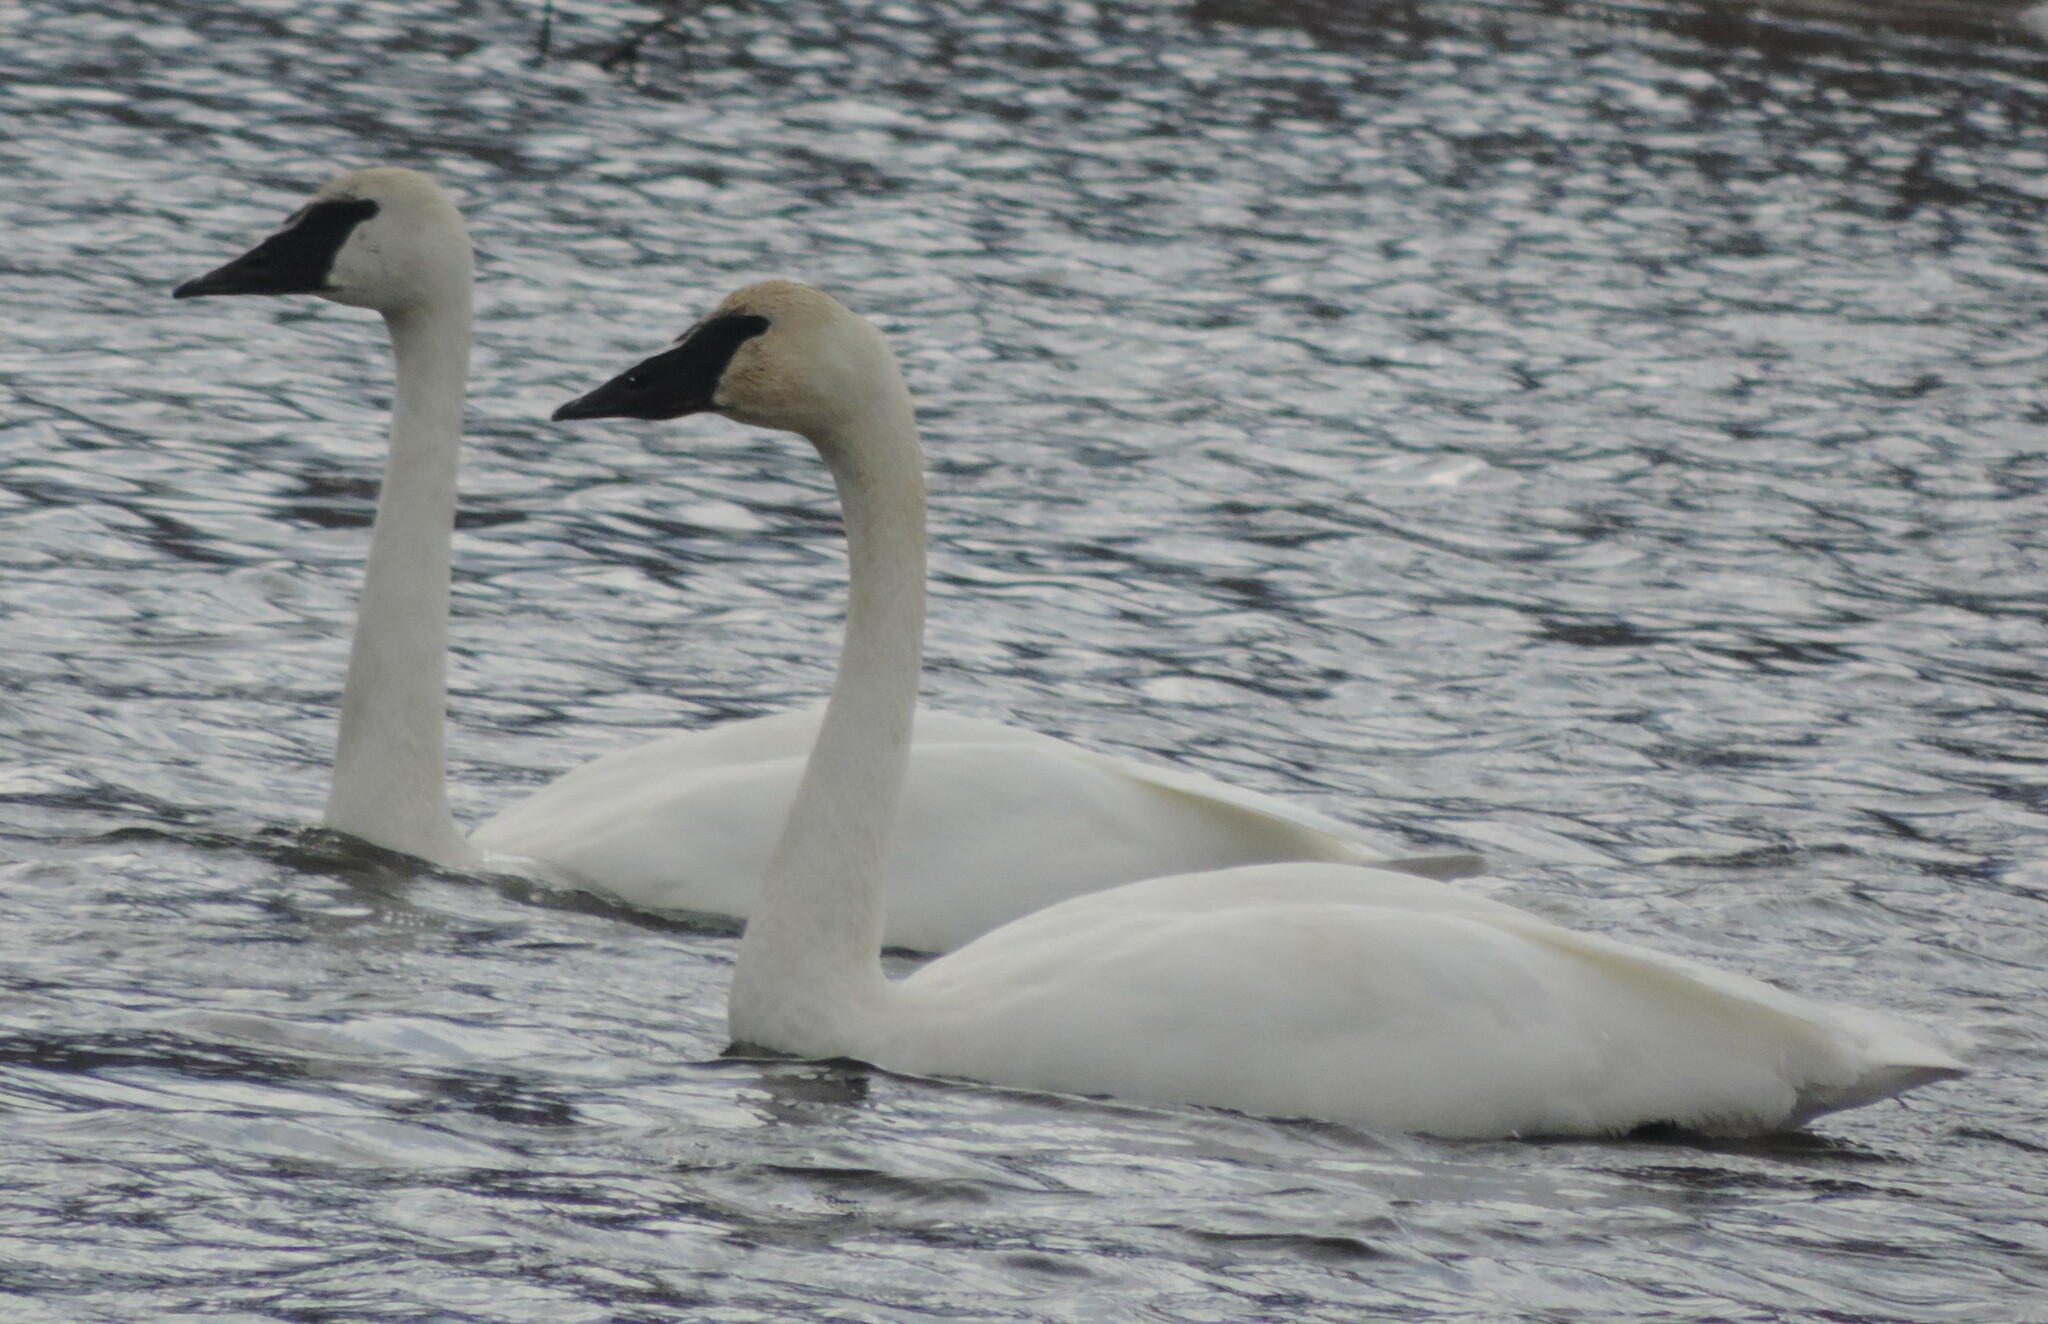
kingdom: Animalia
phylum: Chordata
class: Aves
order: Anseriformes
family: Anatidae
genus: Cygnus
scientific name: Cygnus buccinator
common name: Trumpeter swan
